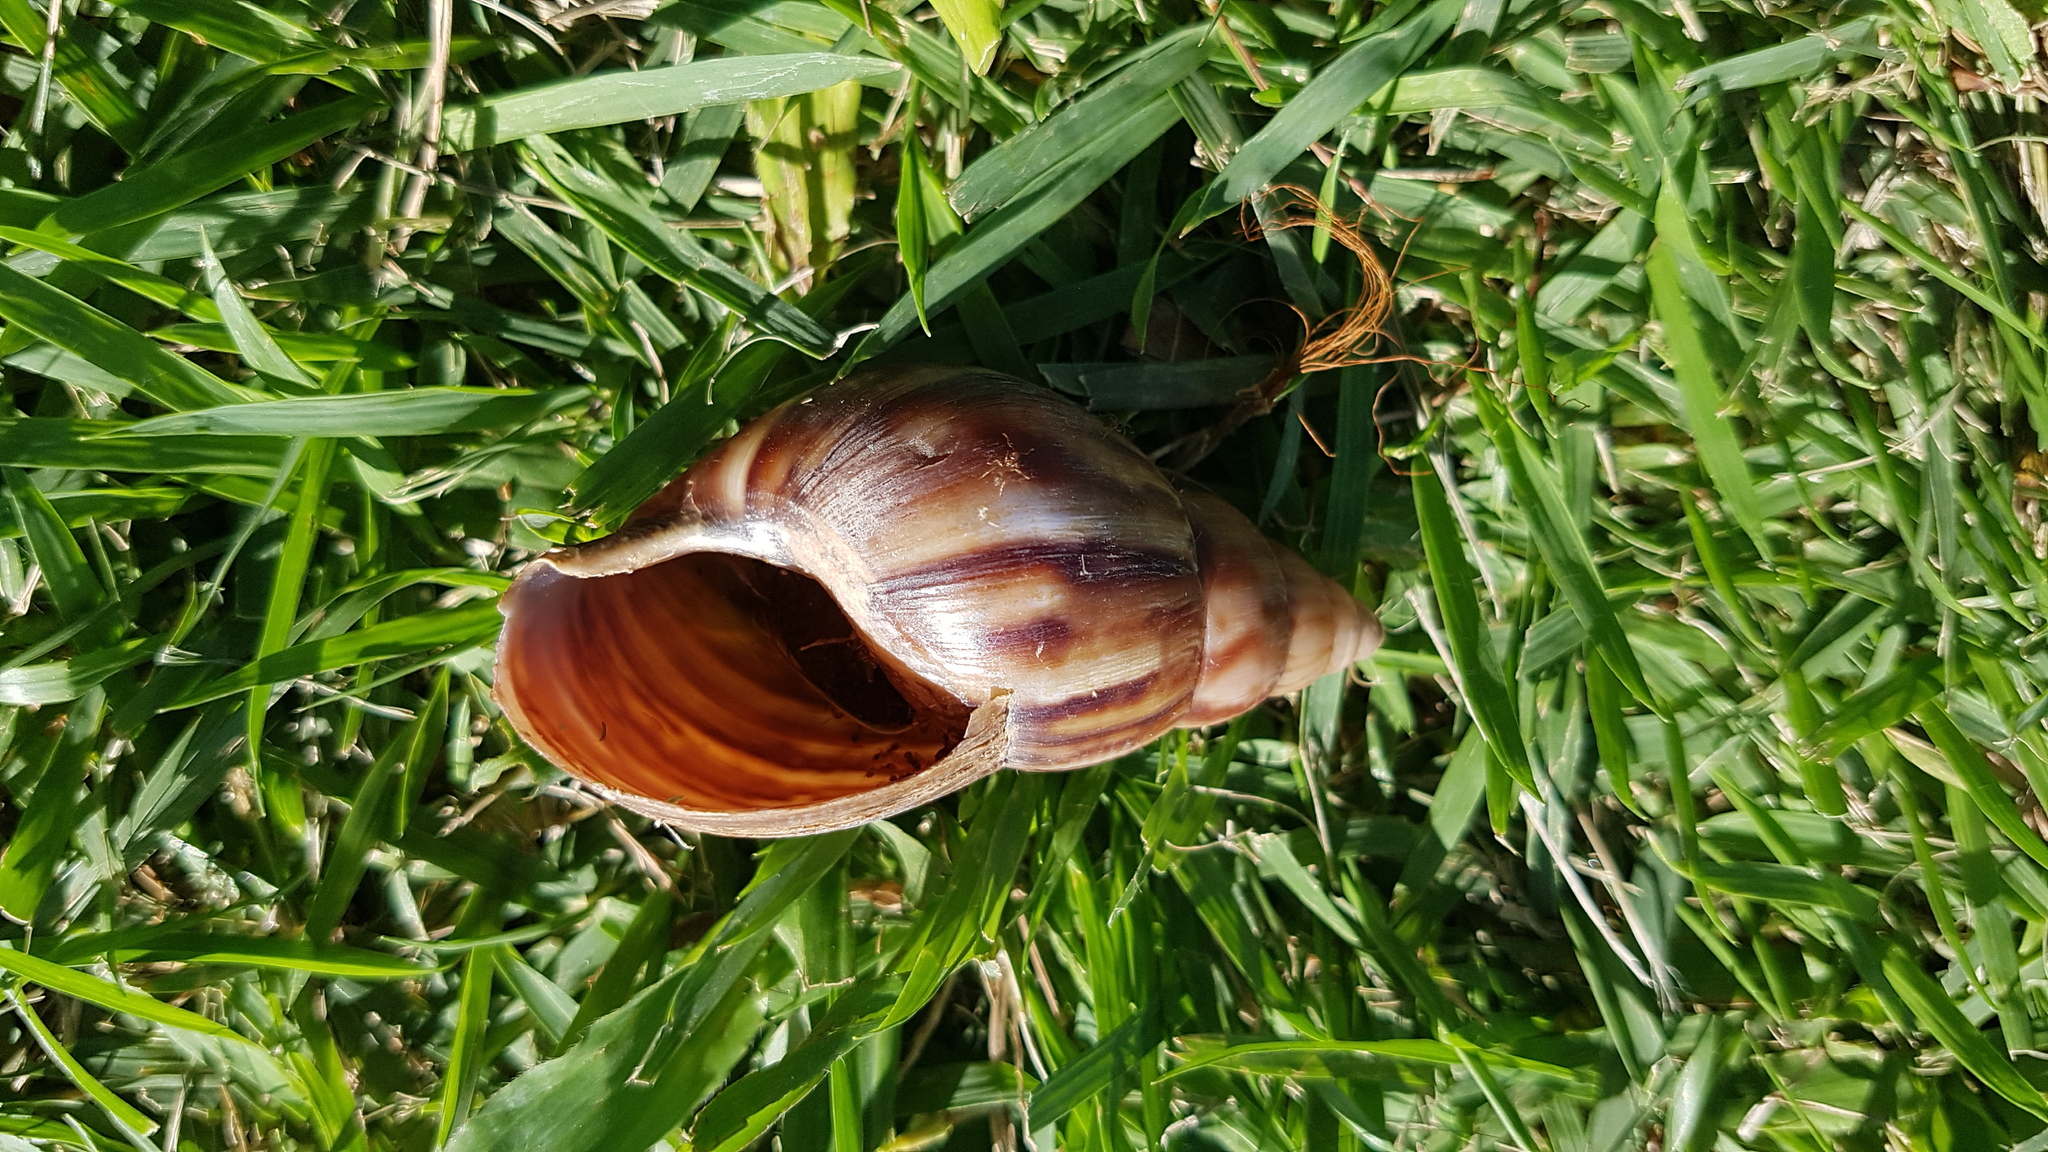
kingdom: Animalia
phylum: Mollusca
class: Gastropoda
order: Stylommatophora
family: Achatinidae
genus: Lissachatina
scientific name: Lissachatina fulica
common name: Giant african snail
